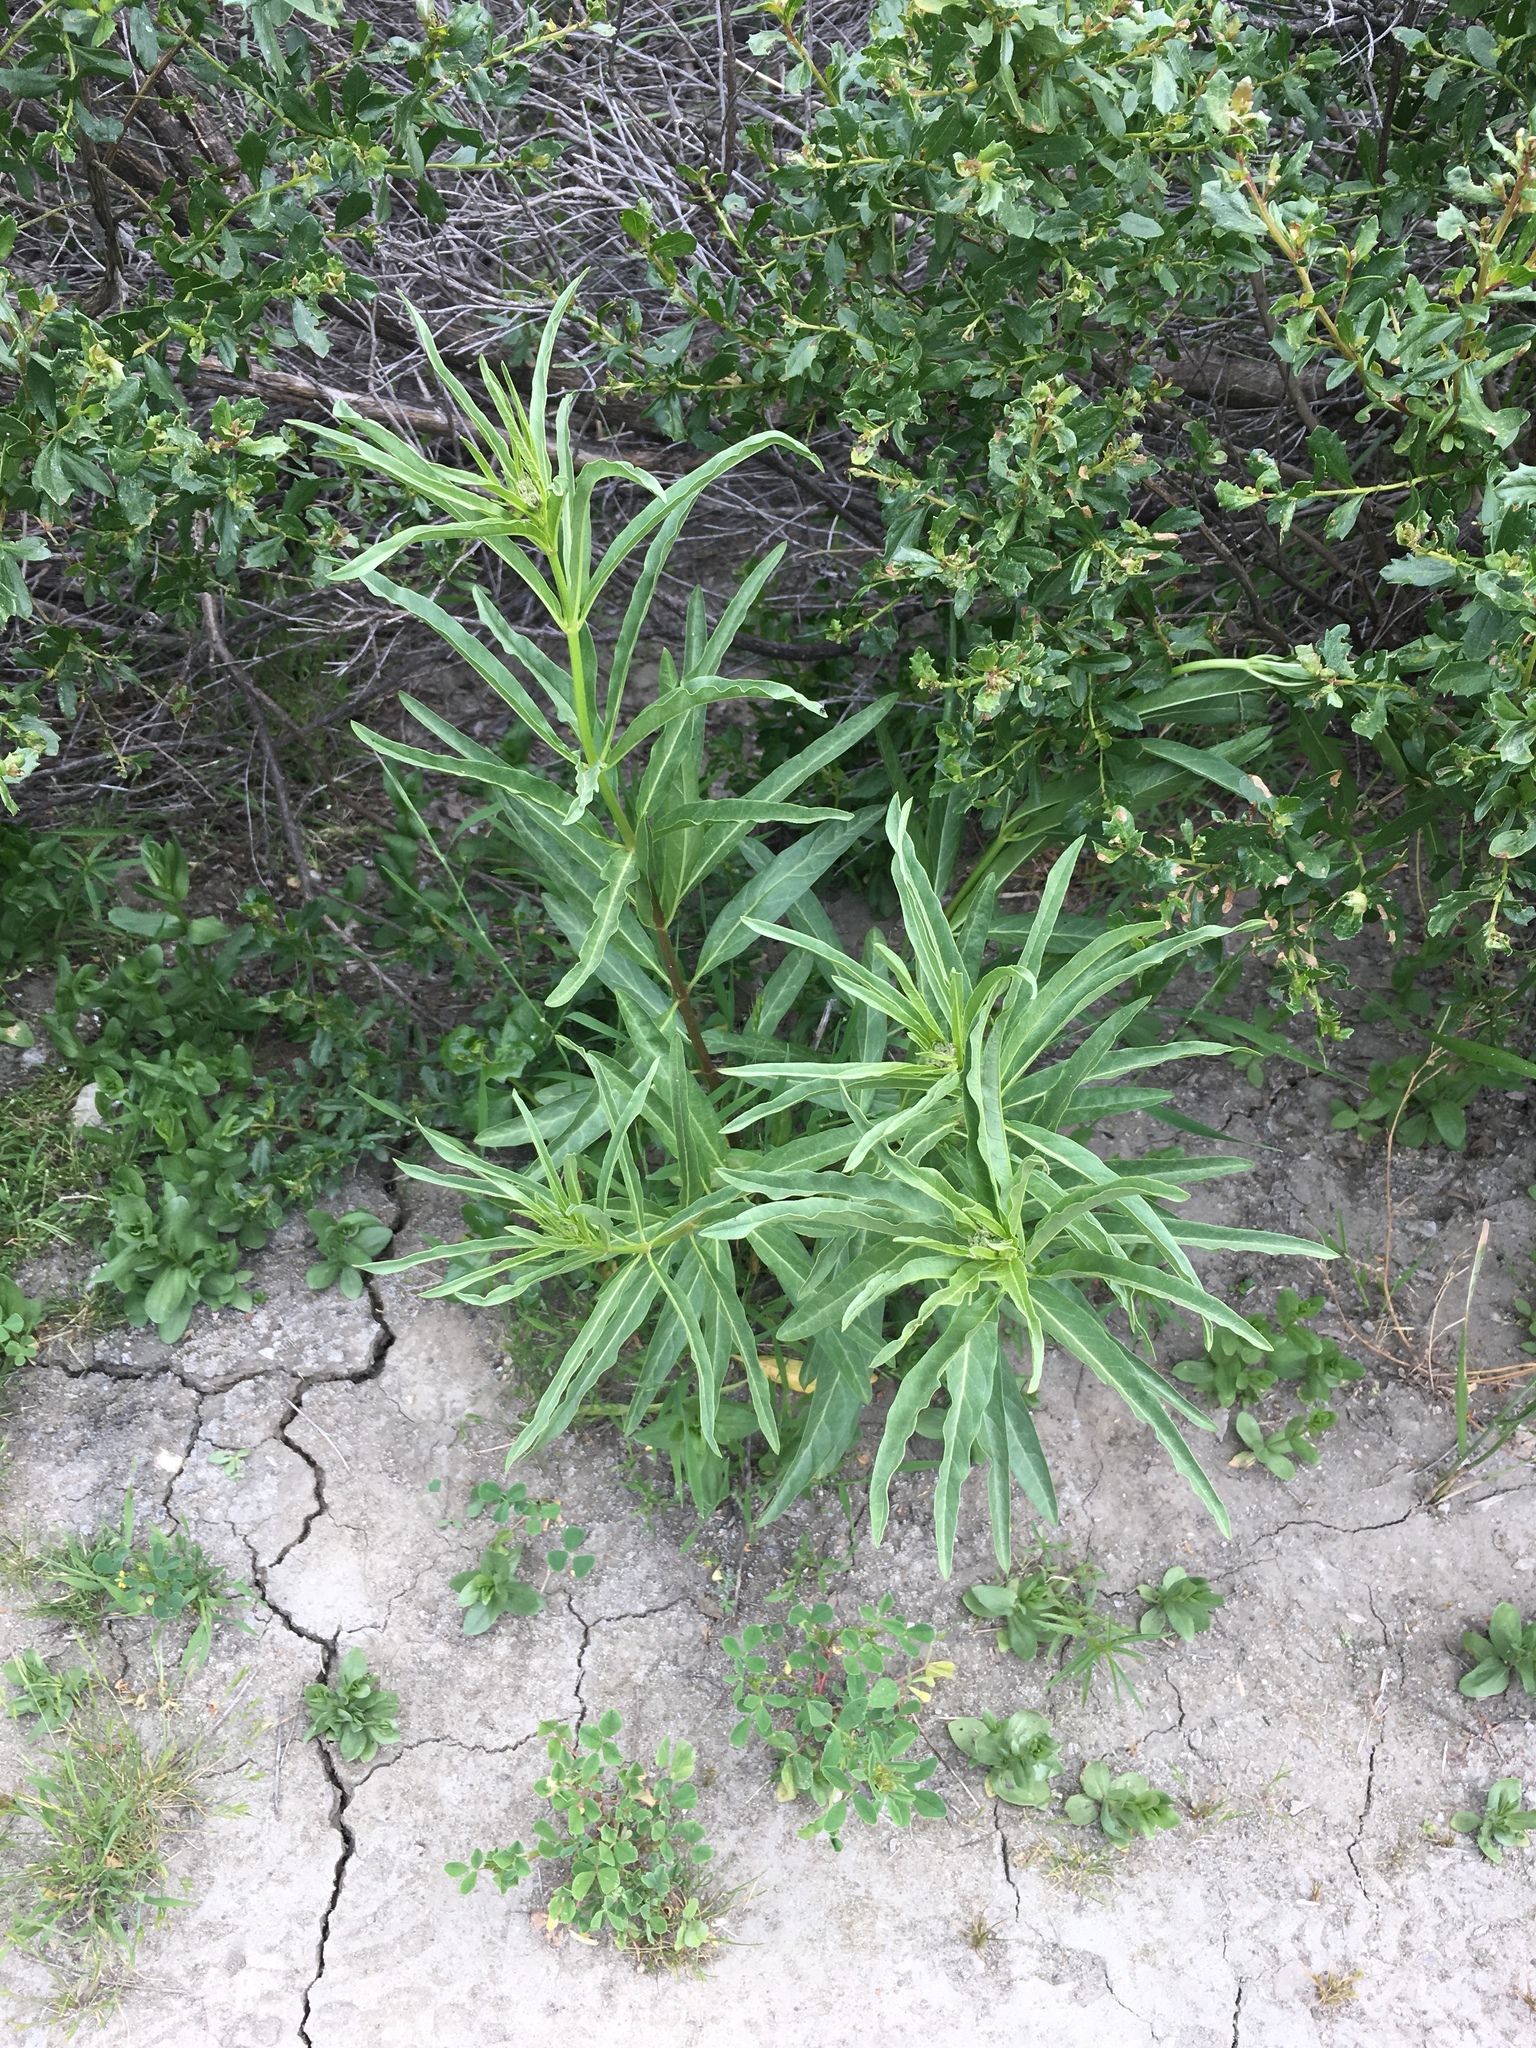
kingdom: Plantae
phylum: Tracheophyta
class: Magnoliopsida
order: Gentianales
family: Apocynaceae
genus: Asclepias
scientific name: Asclepias fascicularis
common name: Mexican milkweed
